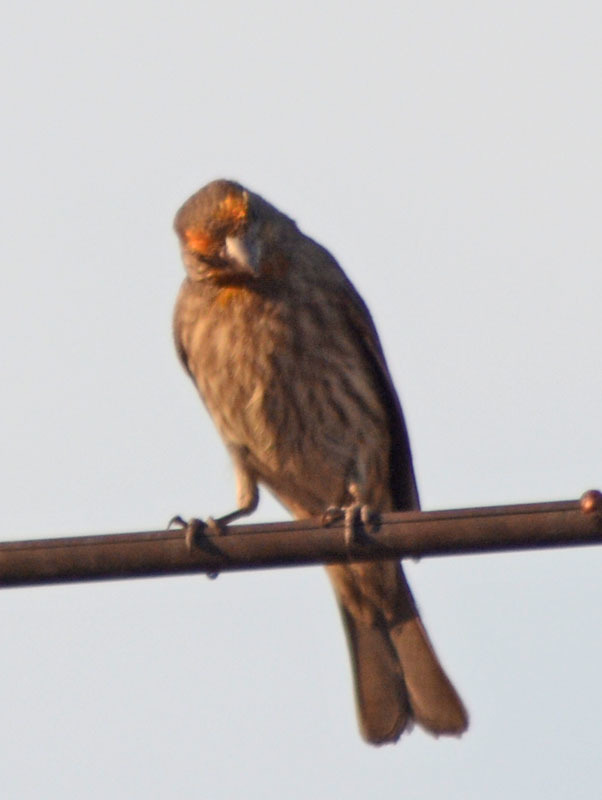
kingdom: Animalia
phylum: Chordata
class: Aves
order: Passeriformes
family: Fringillidae
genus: Haemorhous
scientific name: Haemorhous mexicanus
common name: House finch
